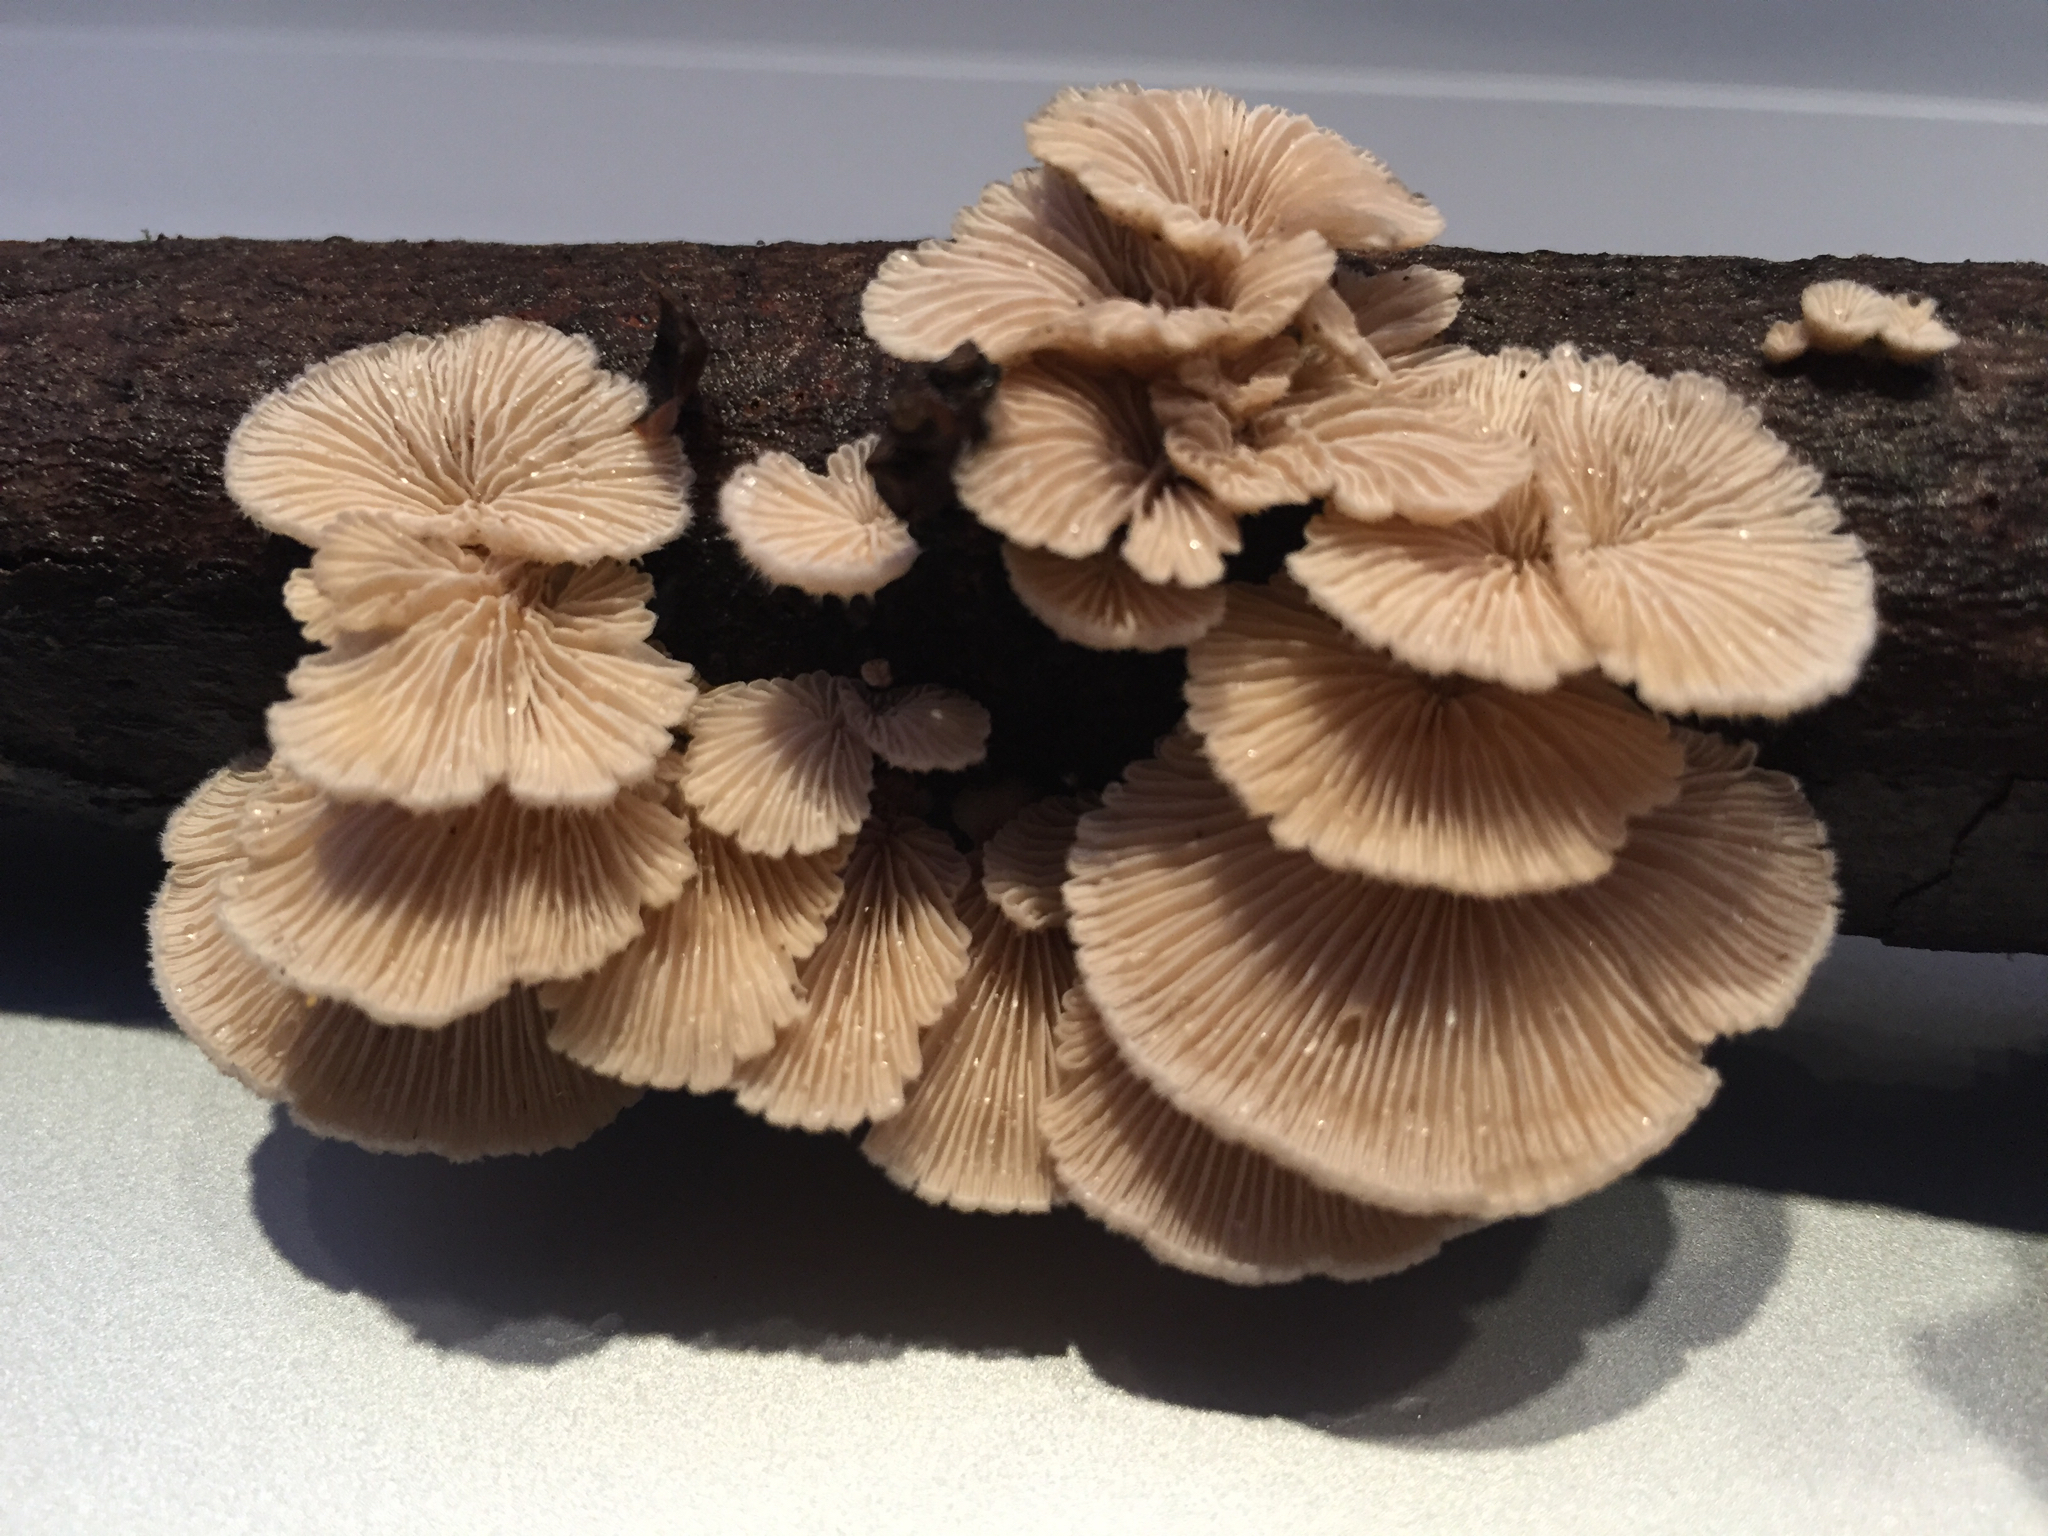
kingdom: Fungi
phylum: Basidiomycota
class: Agaricomycetes
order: Agaricales
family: Schizophyllaceae
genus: Schizophyllum
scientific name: Schizophyllum commune
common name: Common porecrust
